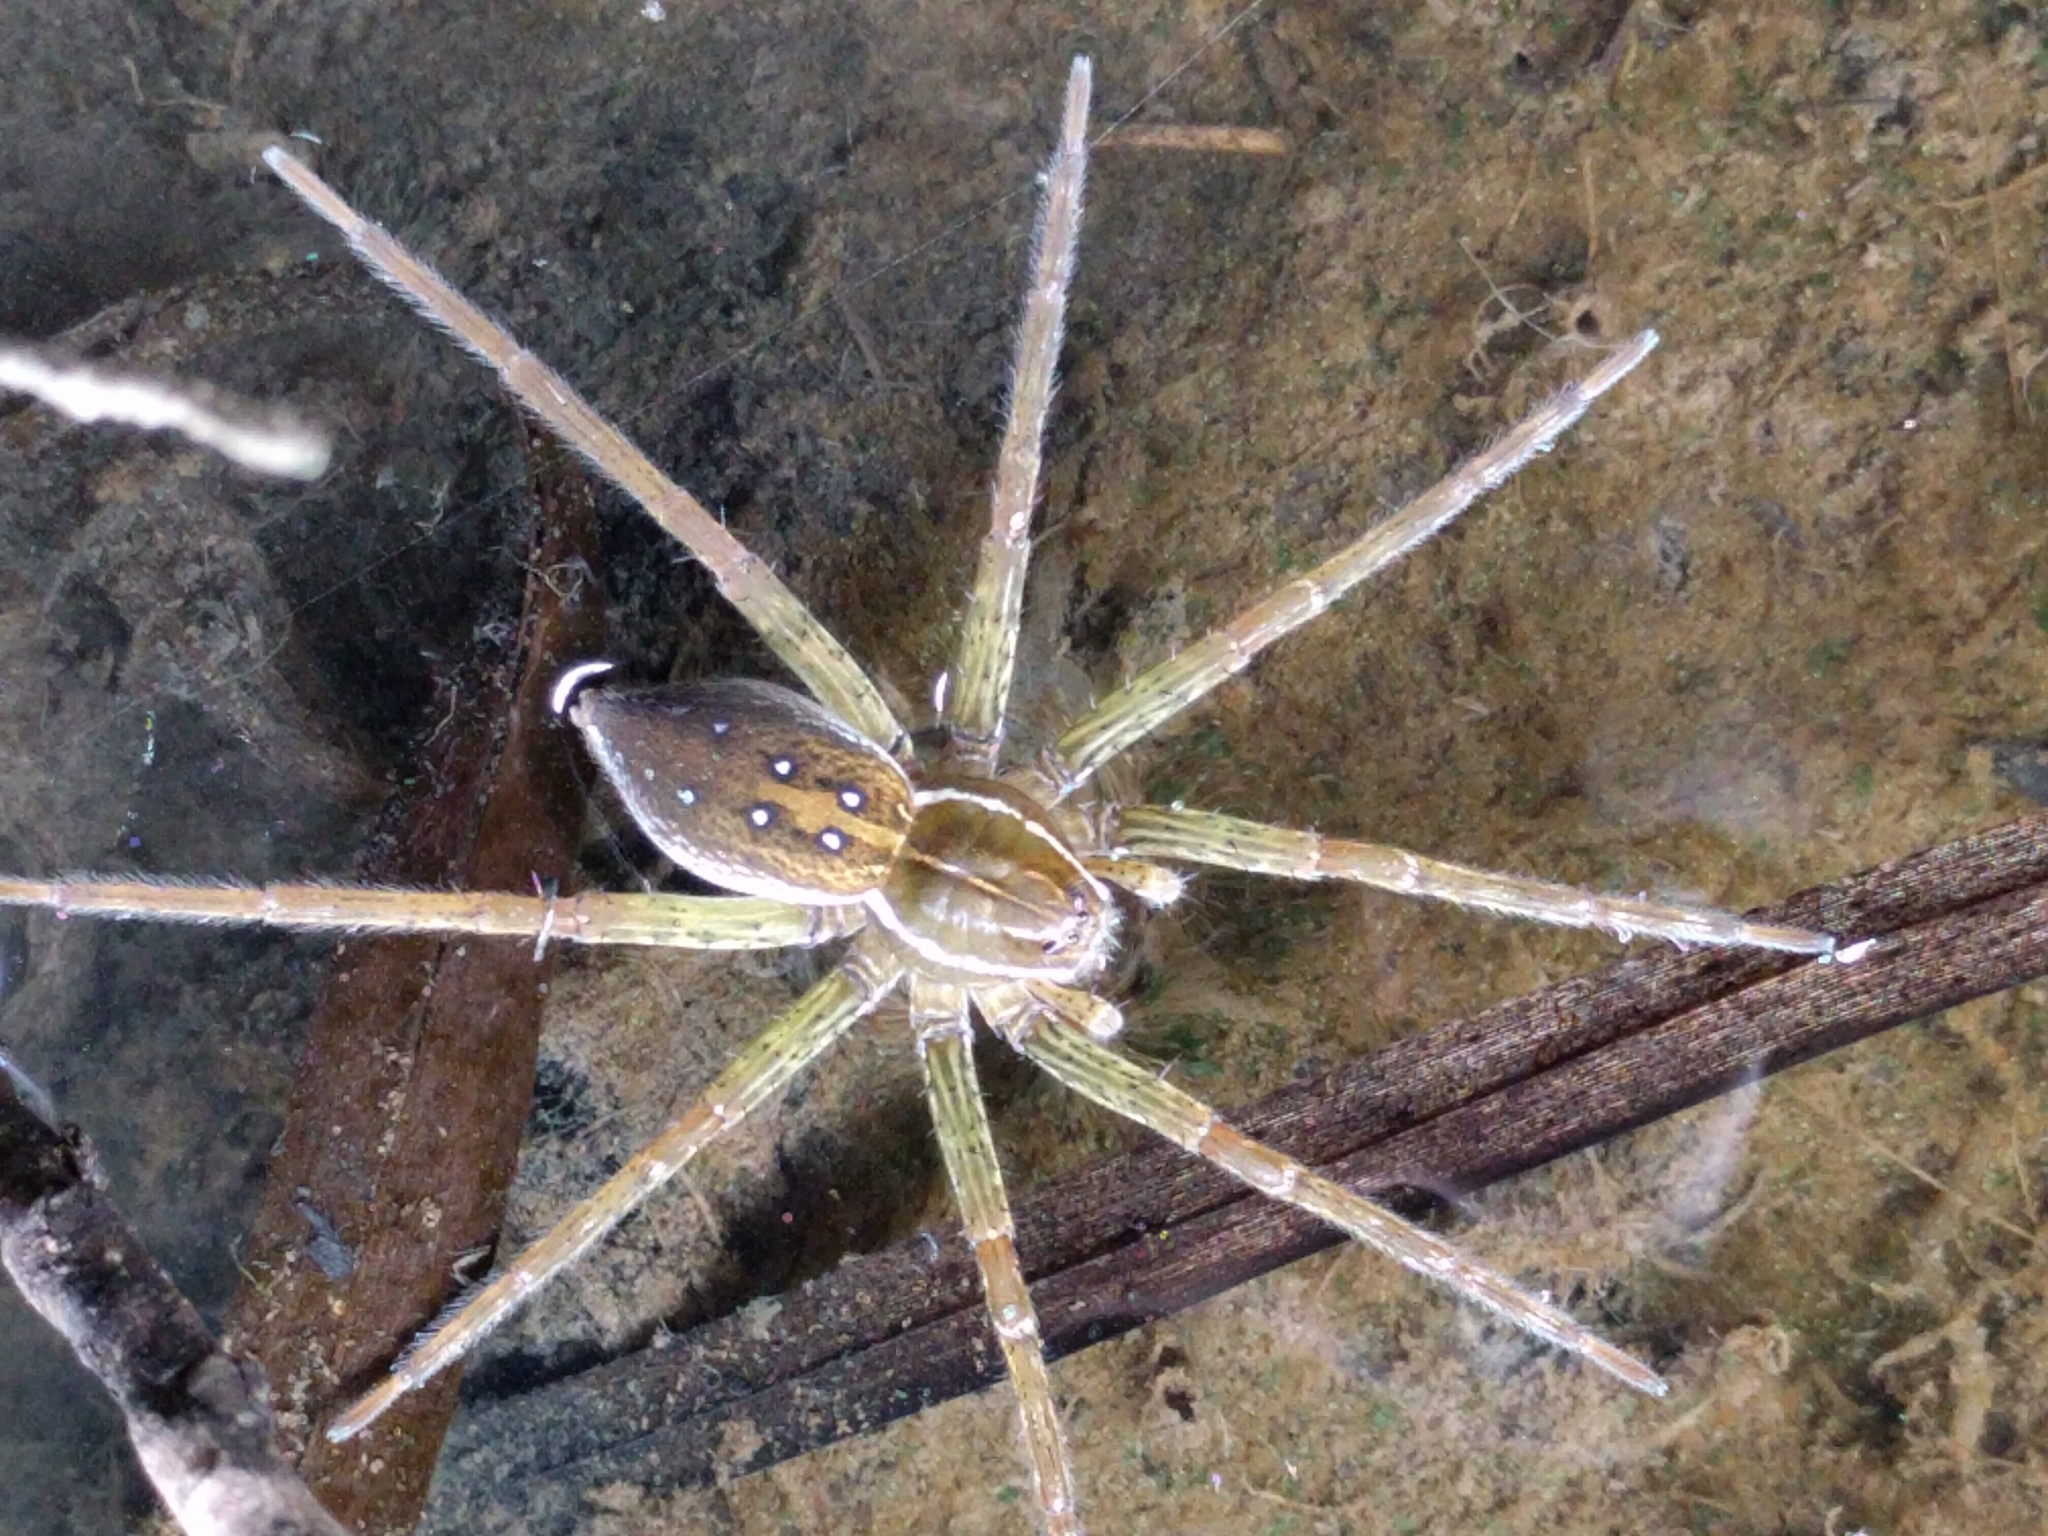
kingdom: Animalia
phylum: Arthropoda
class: Arachnida
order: Araneae
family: Pisauridae
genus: Dolomedes
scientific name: Dolomedes triton
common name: Six-spotted fishing spider
